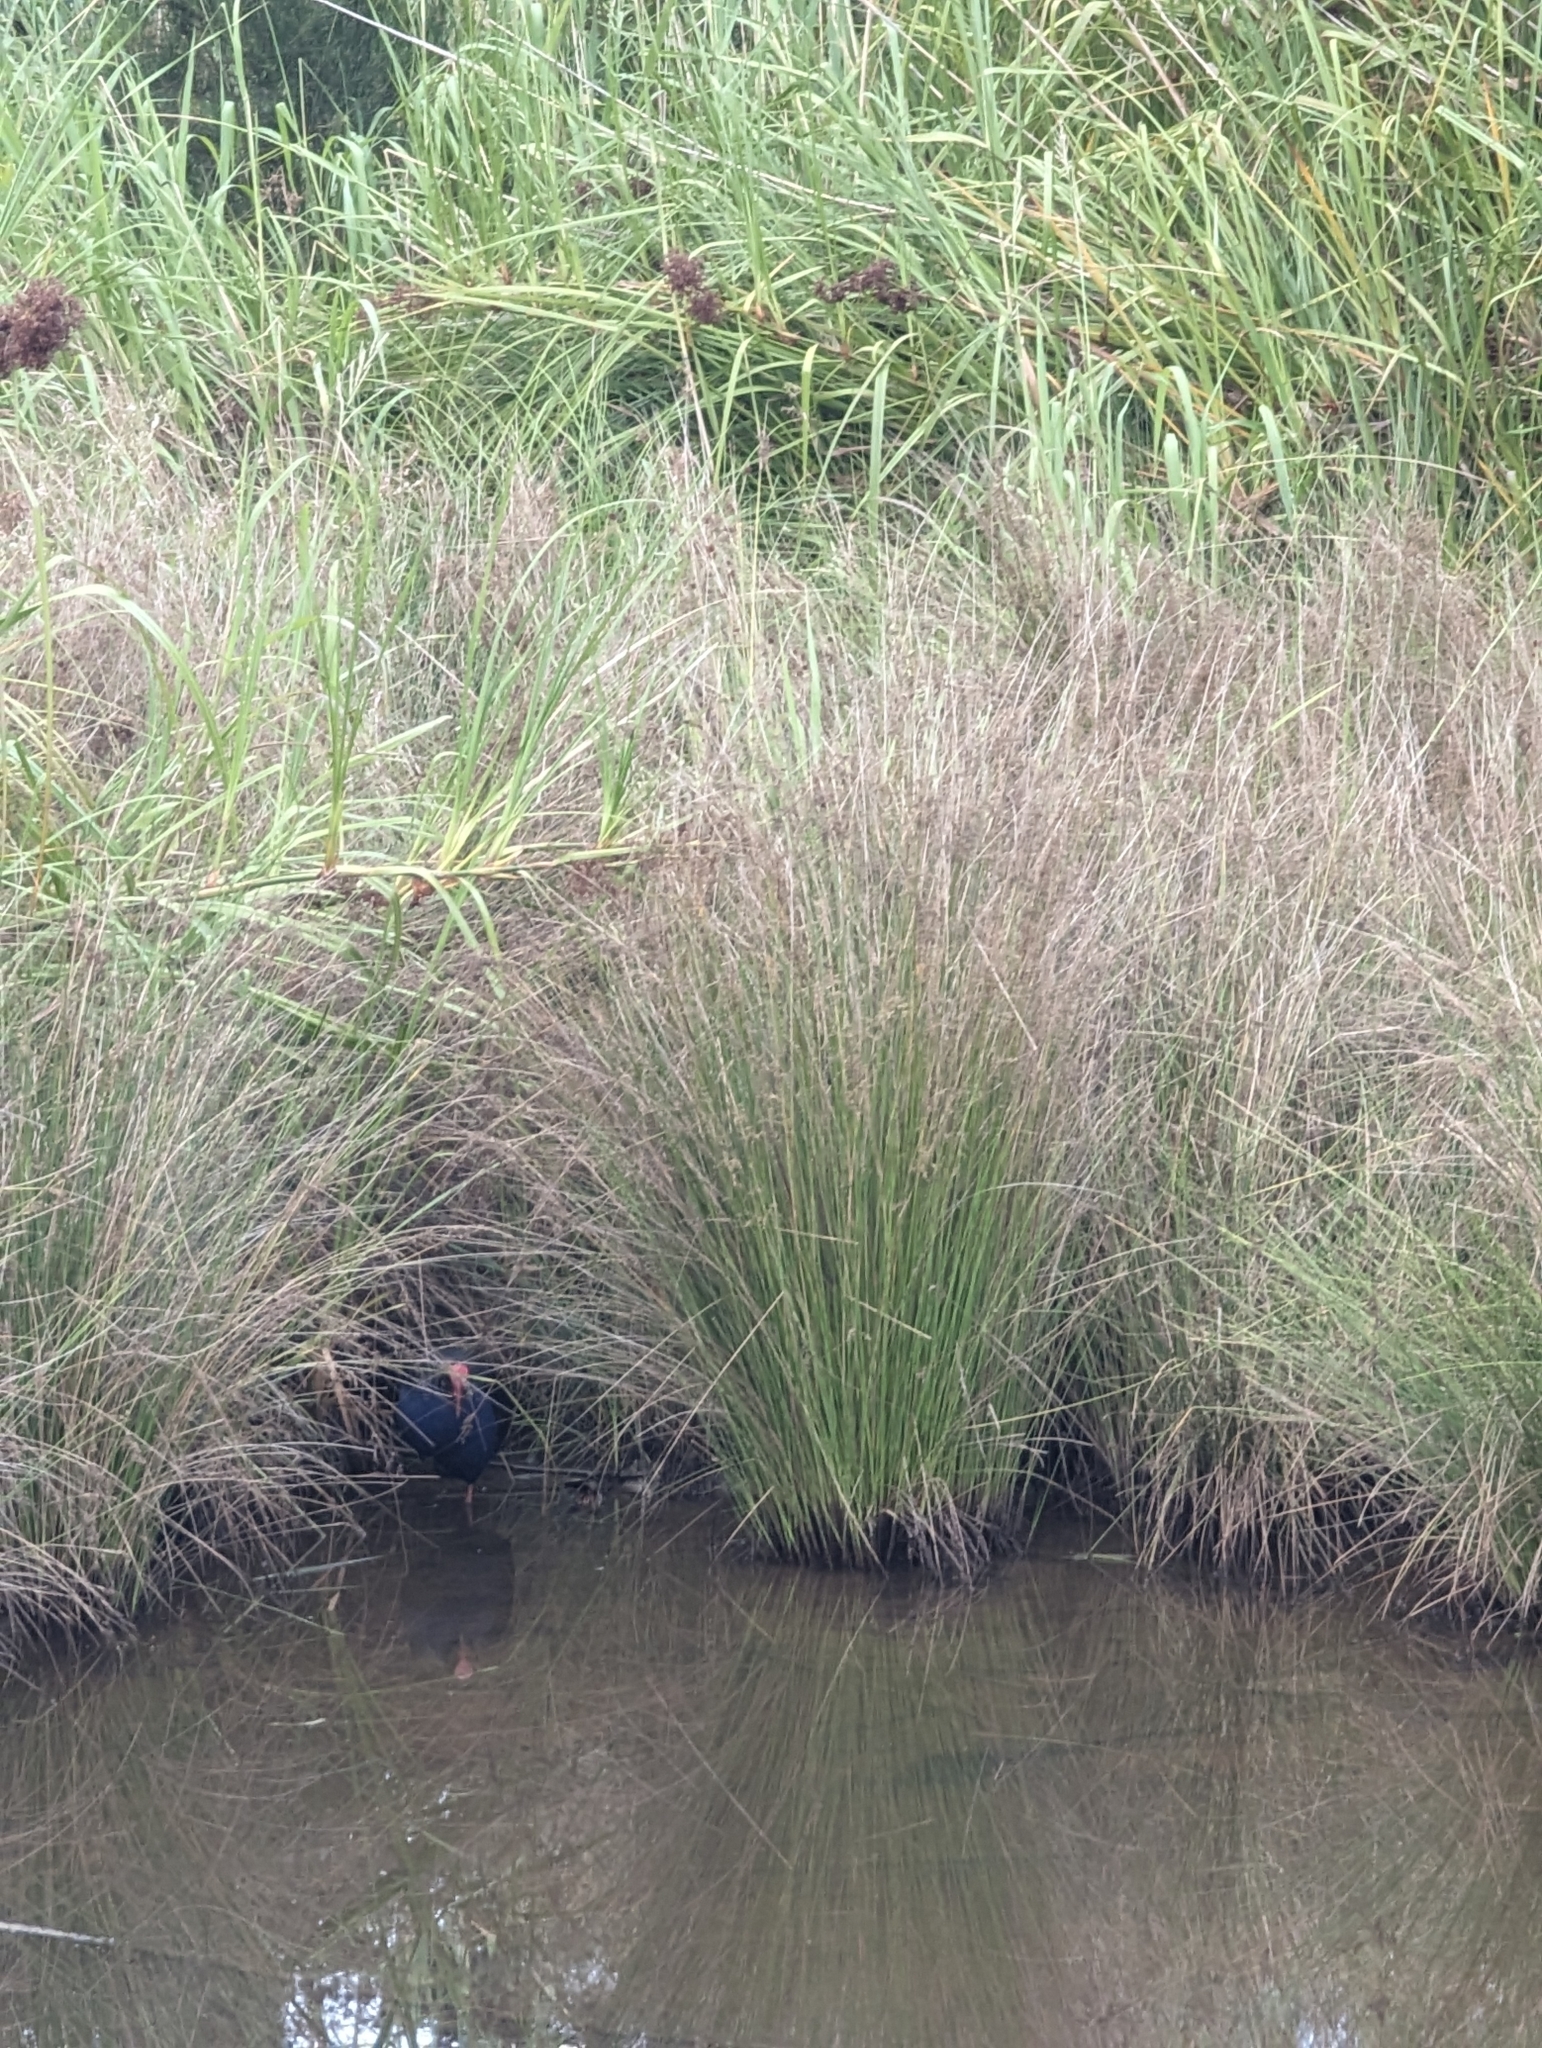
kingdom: Animalia
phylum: Chordata
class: Aves
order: Gruiformes
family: Rallidae
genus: Porphyrio
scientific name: Porphyrio melanotus
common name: Australasian swamphen
